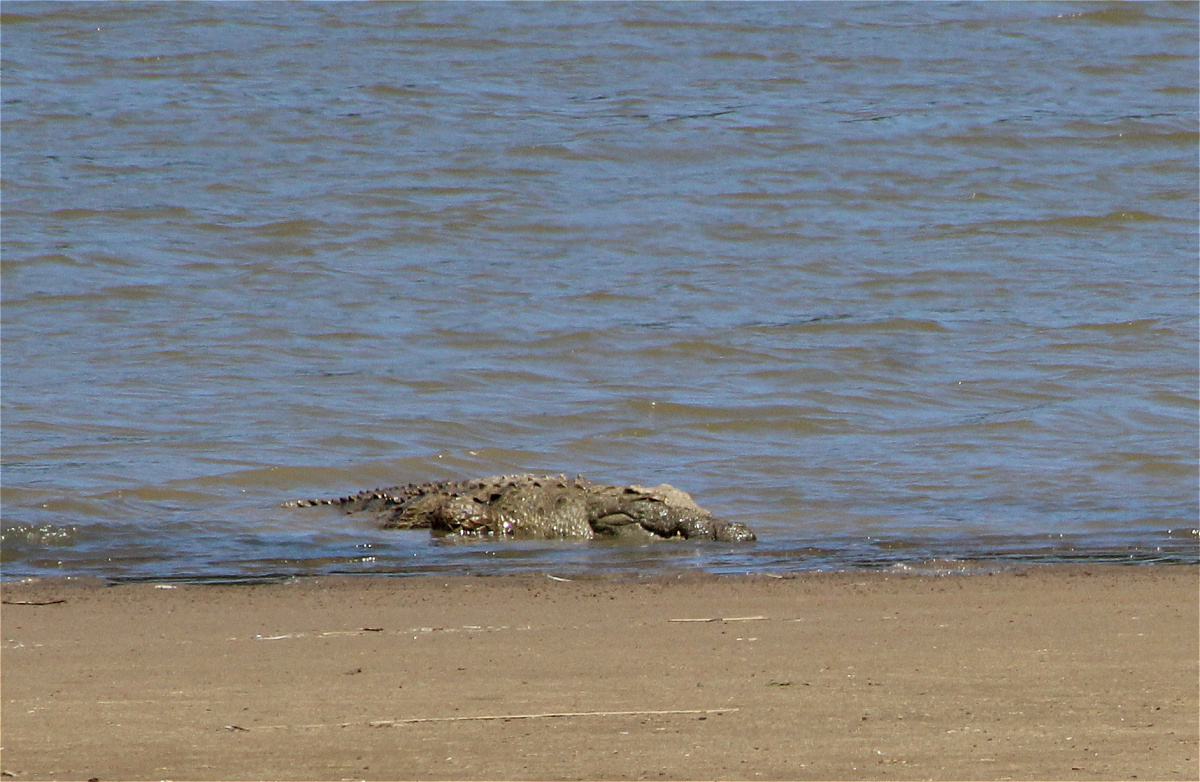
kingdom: Animalia
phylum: Chordata
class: Crocodylia
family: Crocodylidae
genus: Crocodylus
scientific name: Crocodylus niloticus
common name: Nile crocodile
